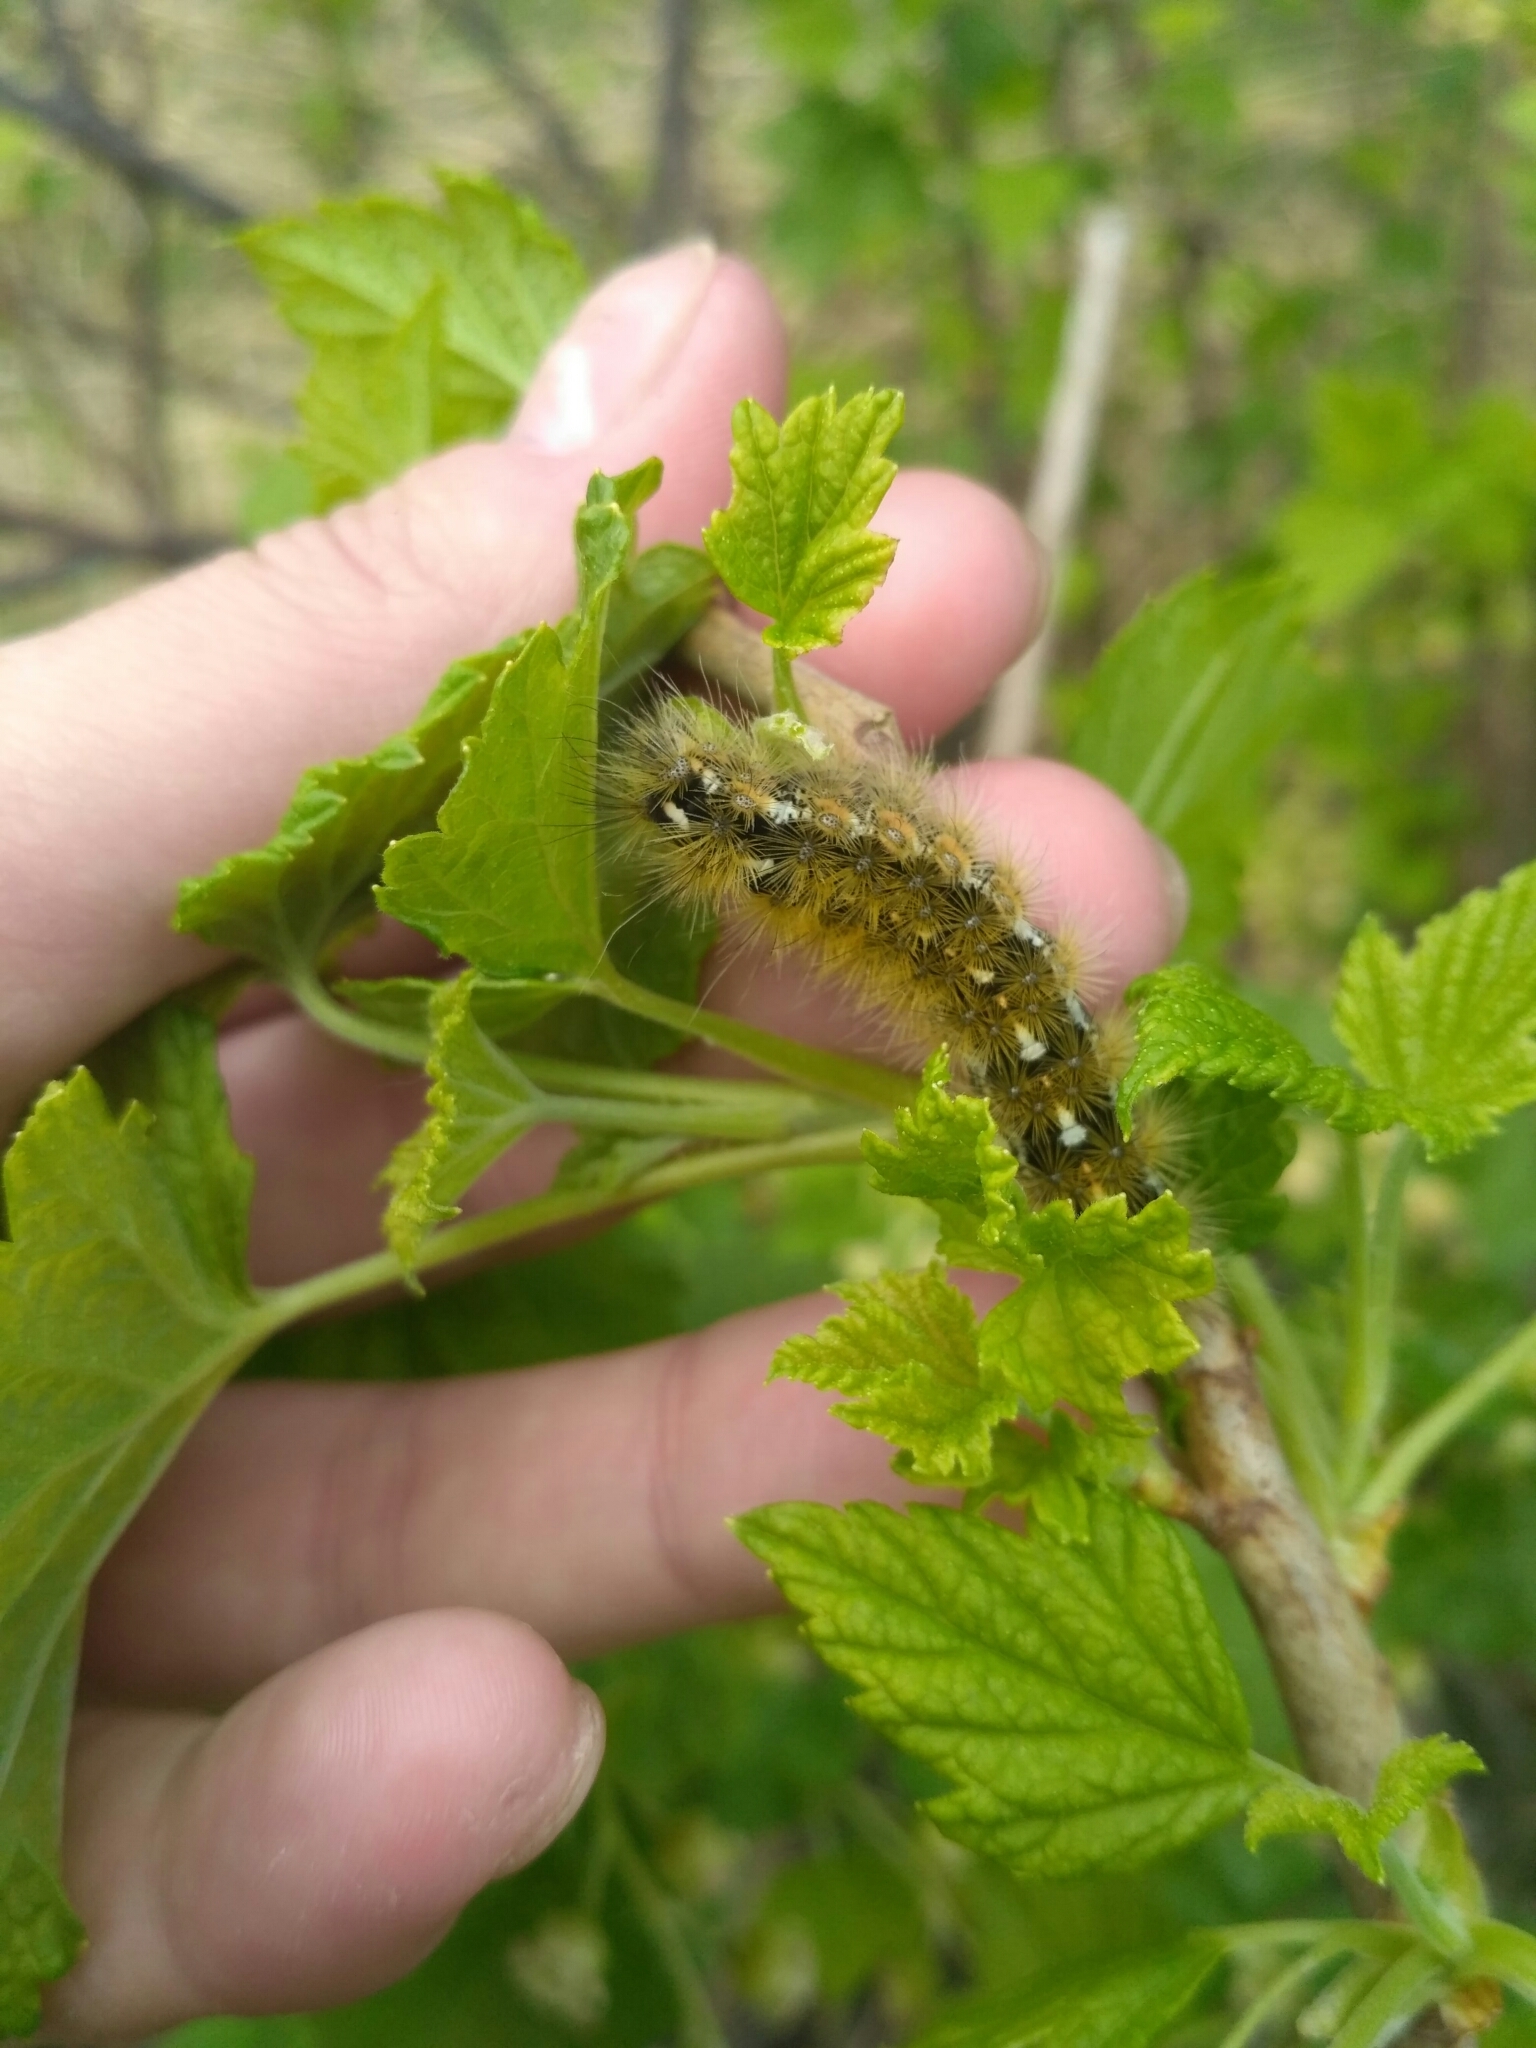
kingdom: Animalia
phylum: Arthropoda
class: Insecta
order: Lepidoptera
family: Erebidae
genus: Rhyparia
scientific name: Rhyparia purpurata
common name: Purple tiger
